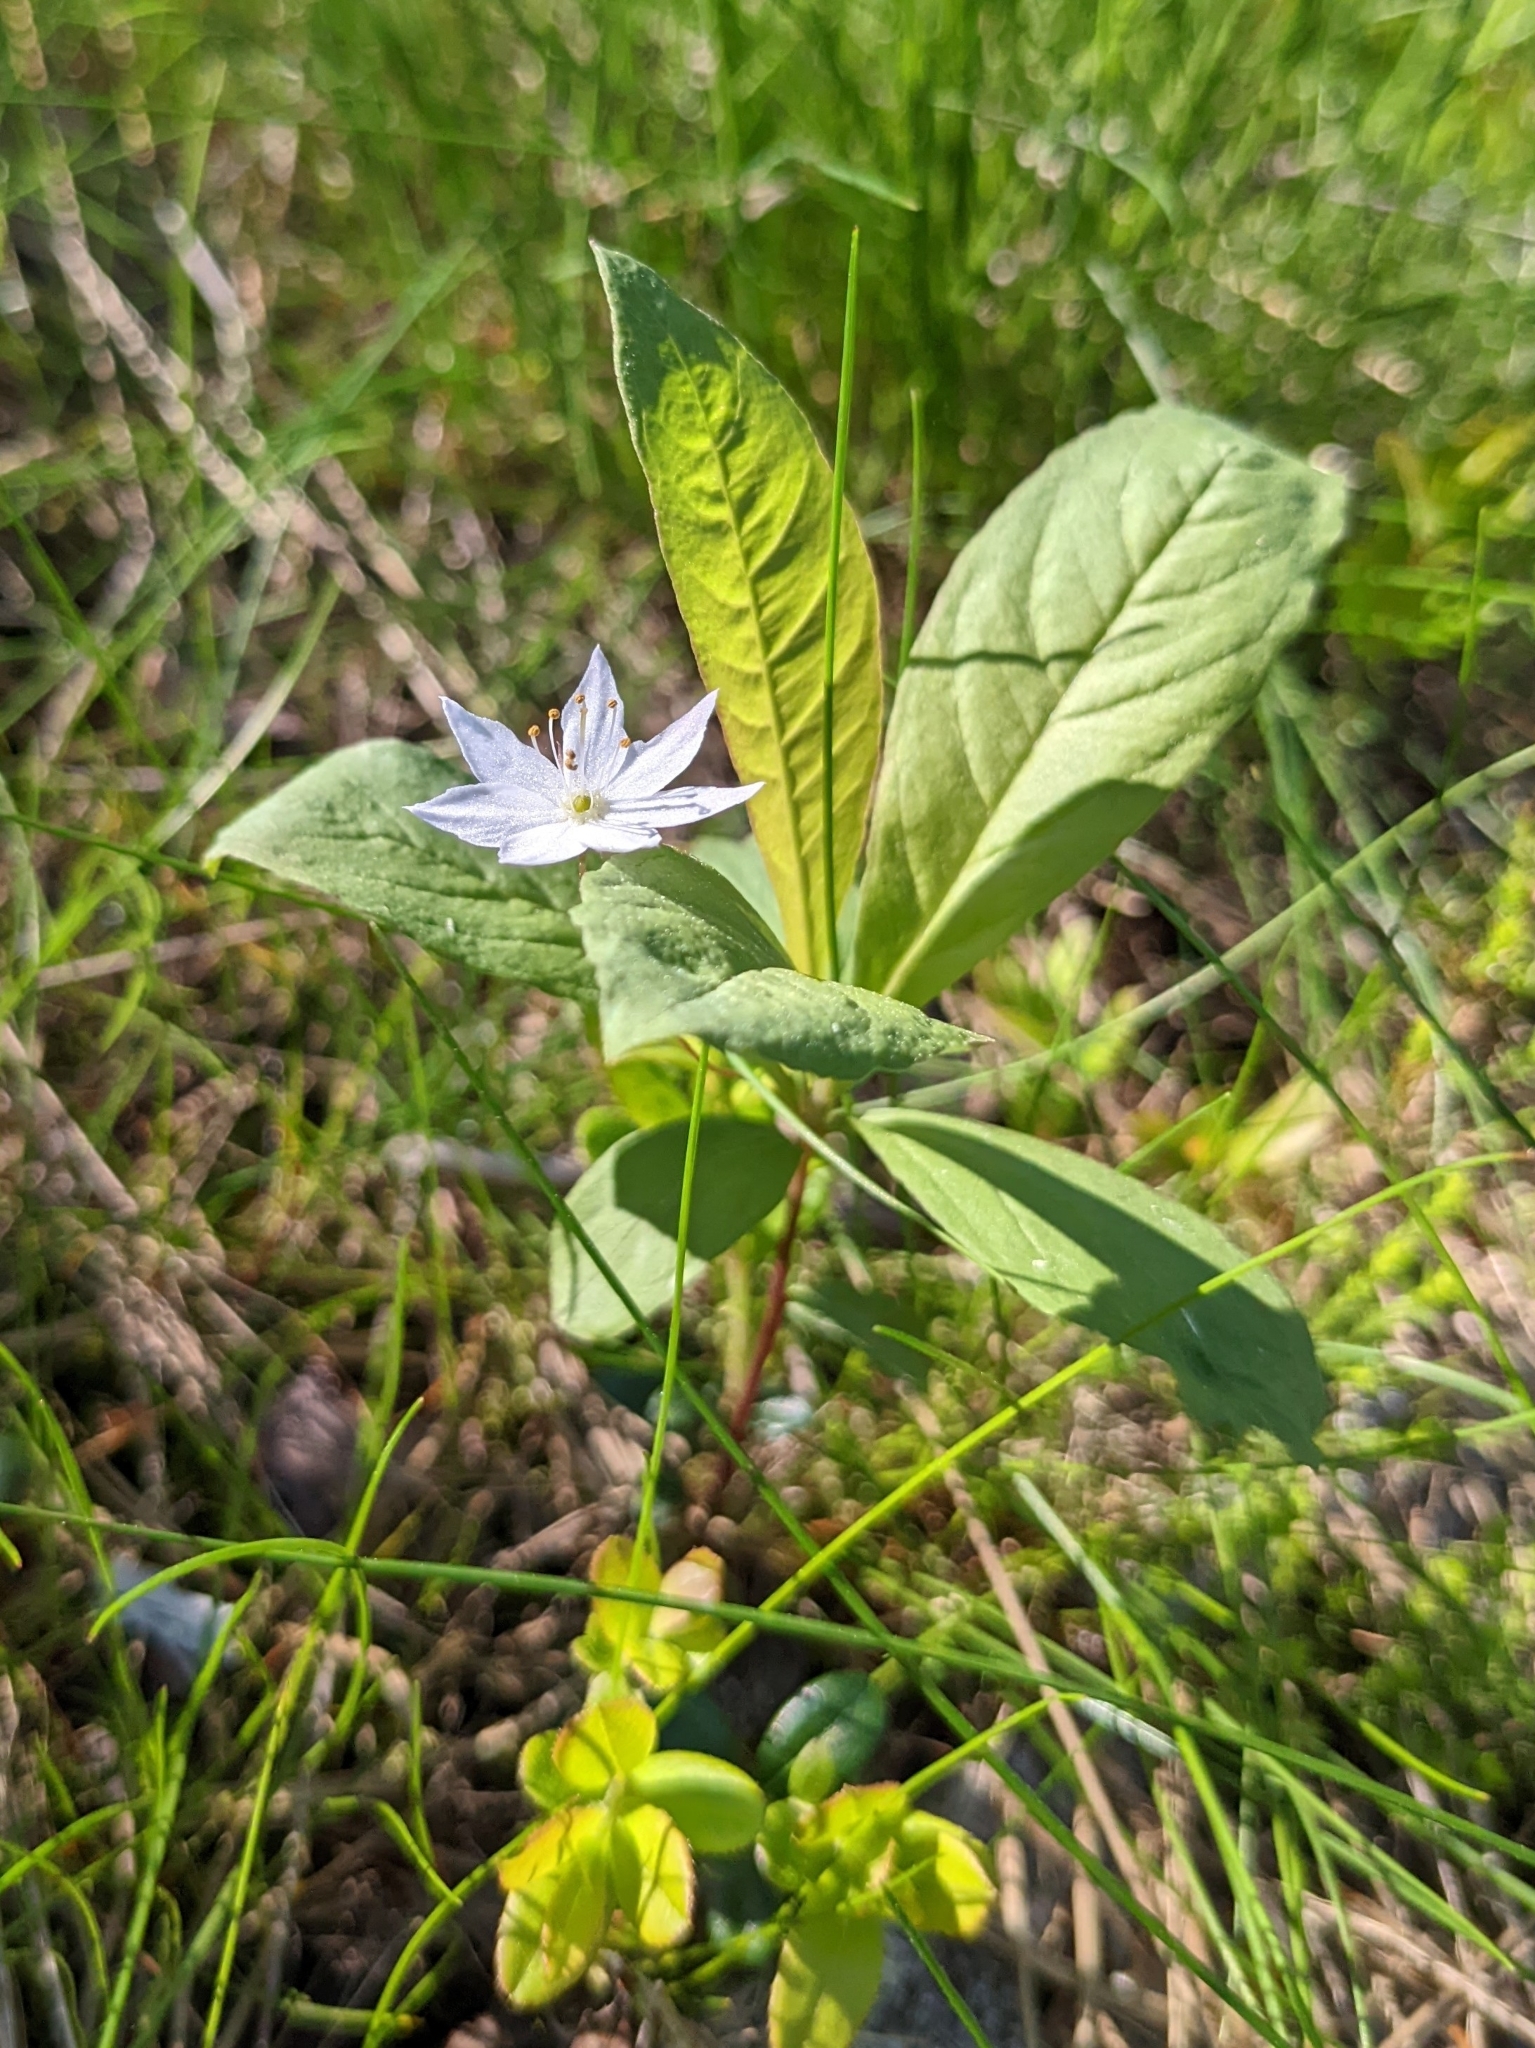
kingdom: Plantae
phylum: Tracheophyta
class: Magnoliopsida
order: Ericales
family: Primulaceae
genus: Lysimachia
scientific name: Lysimachia europaea
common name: Arctic starflower
